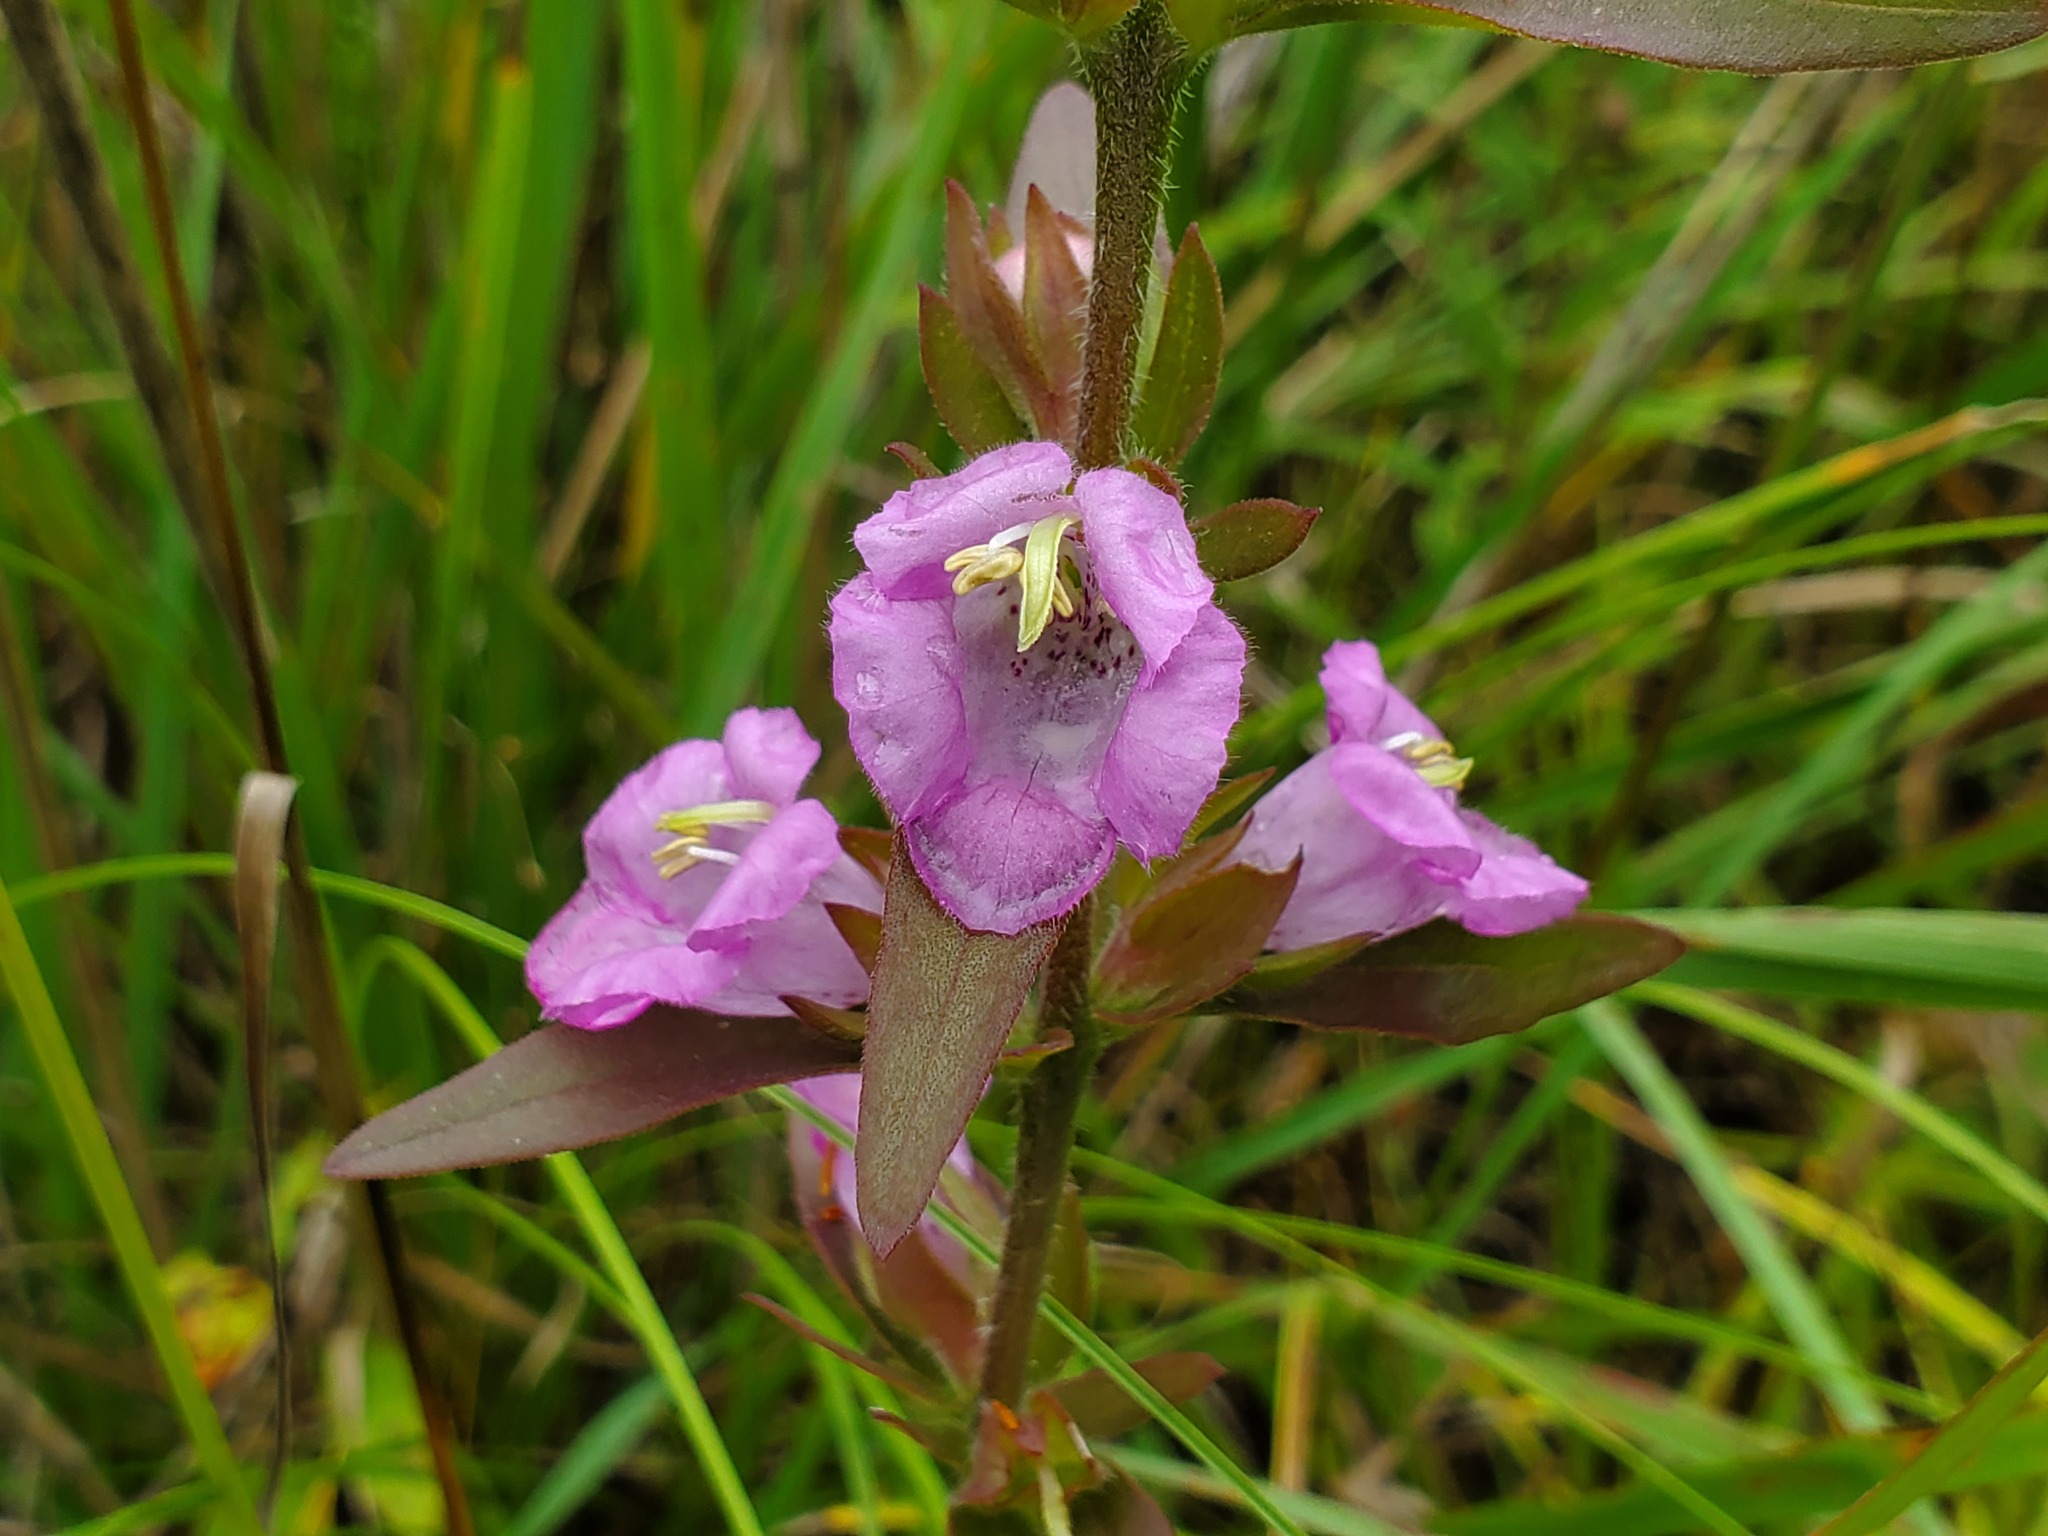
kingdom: Plantae
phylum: Tracheophyta
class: Magnoliopsida
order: Lamiales
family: Orobanchaceae
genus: Agalinis
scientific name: Agalinis auriculata
